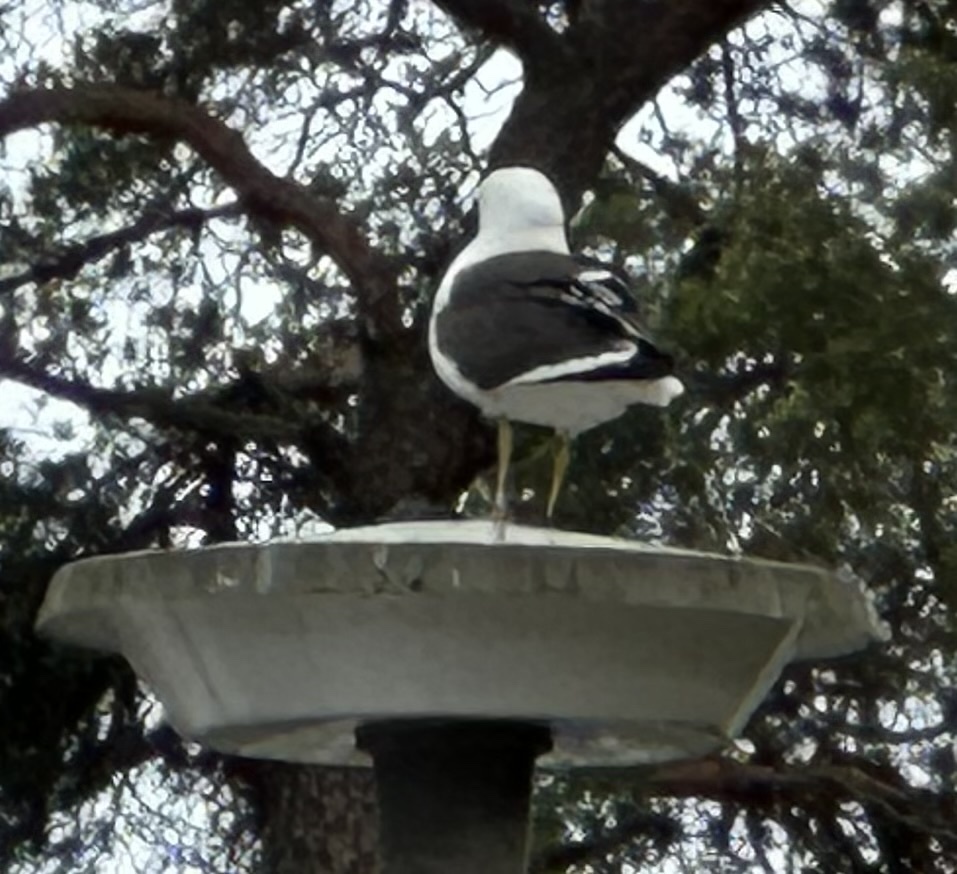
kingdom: Animalia
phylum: Chordata
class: Aves
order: Charadriiformes
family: Laridae
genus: Larus
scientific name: Larus fuscus
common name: Lesser black-backed gull
